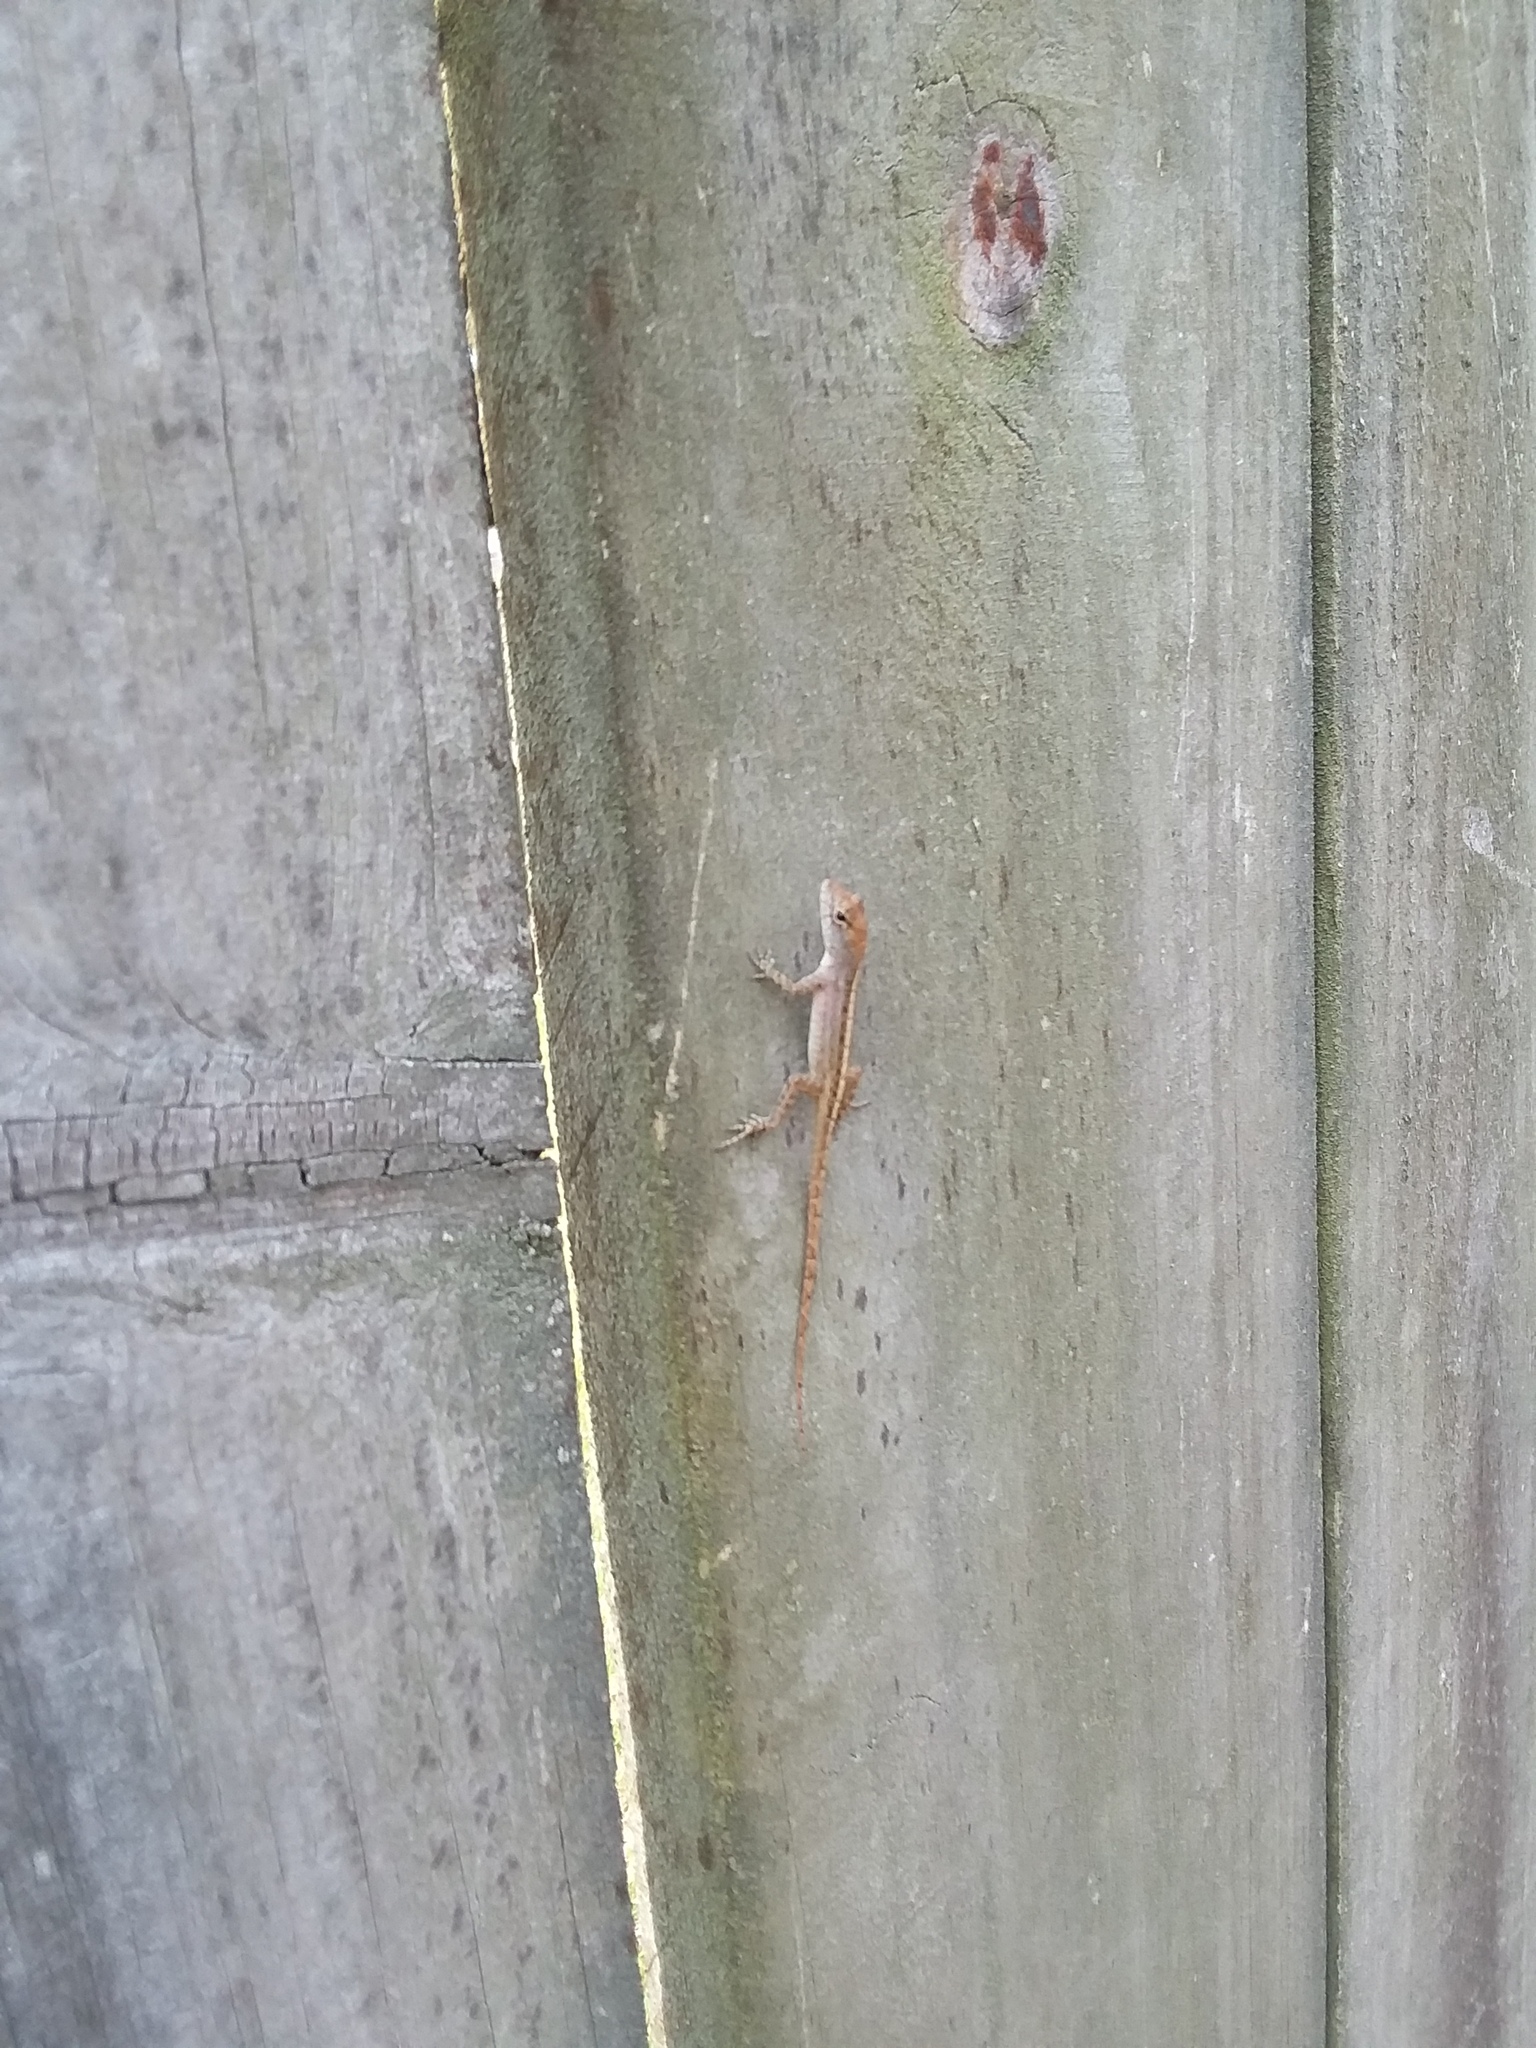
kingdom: Animalia
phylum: Chordata
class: Squamata
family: Dactyloidae
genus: Anolis
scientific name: Anolis sagrei
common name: Brown anole
